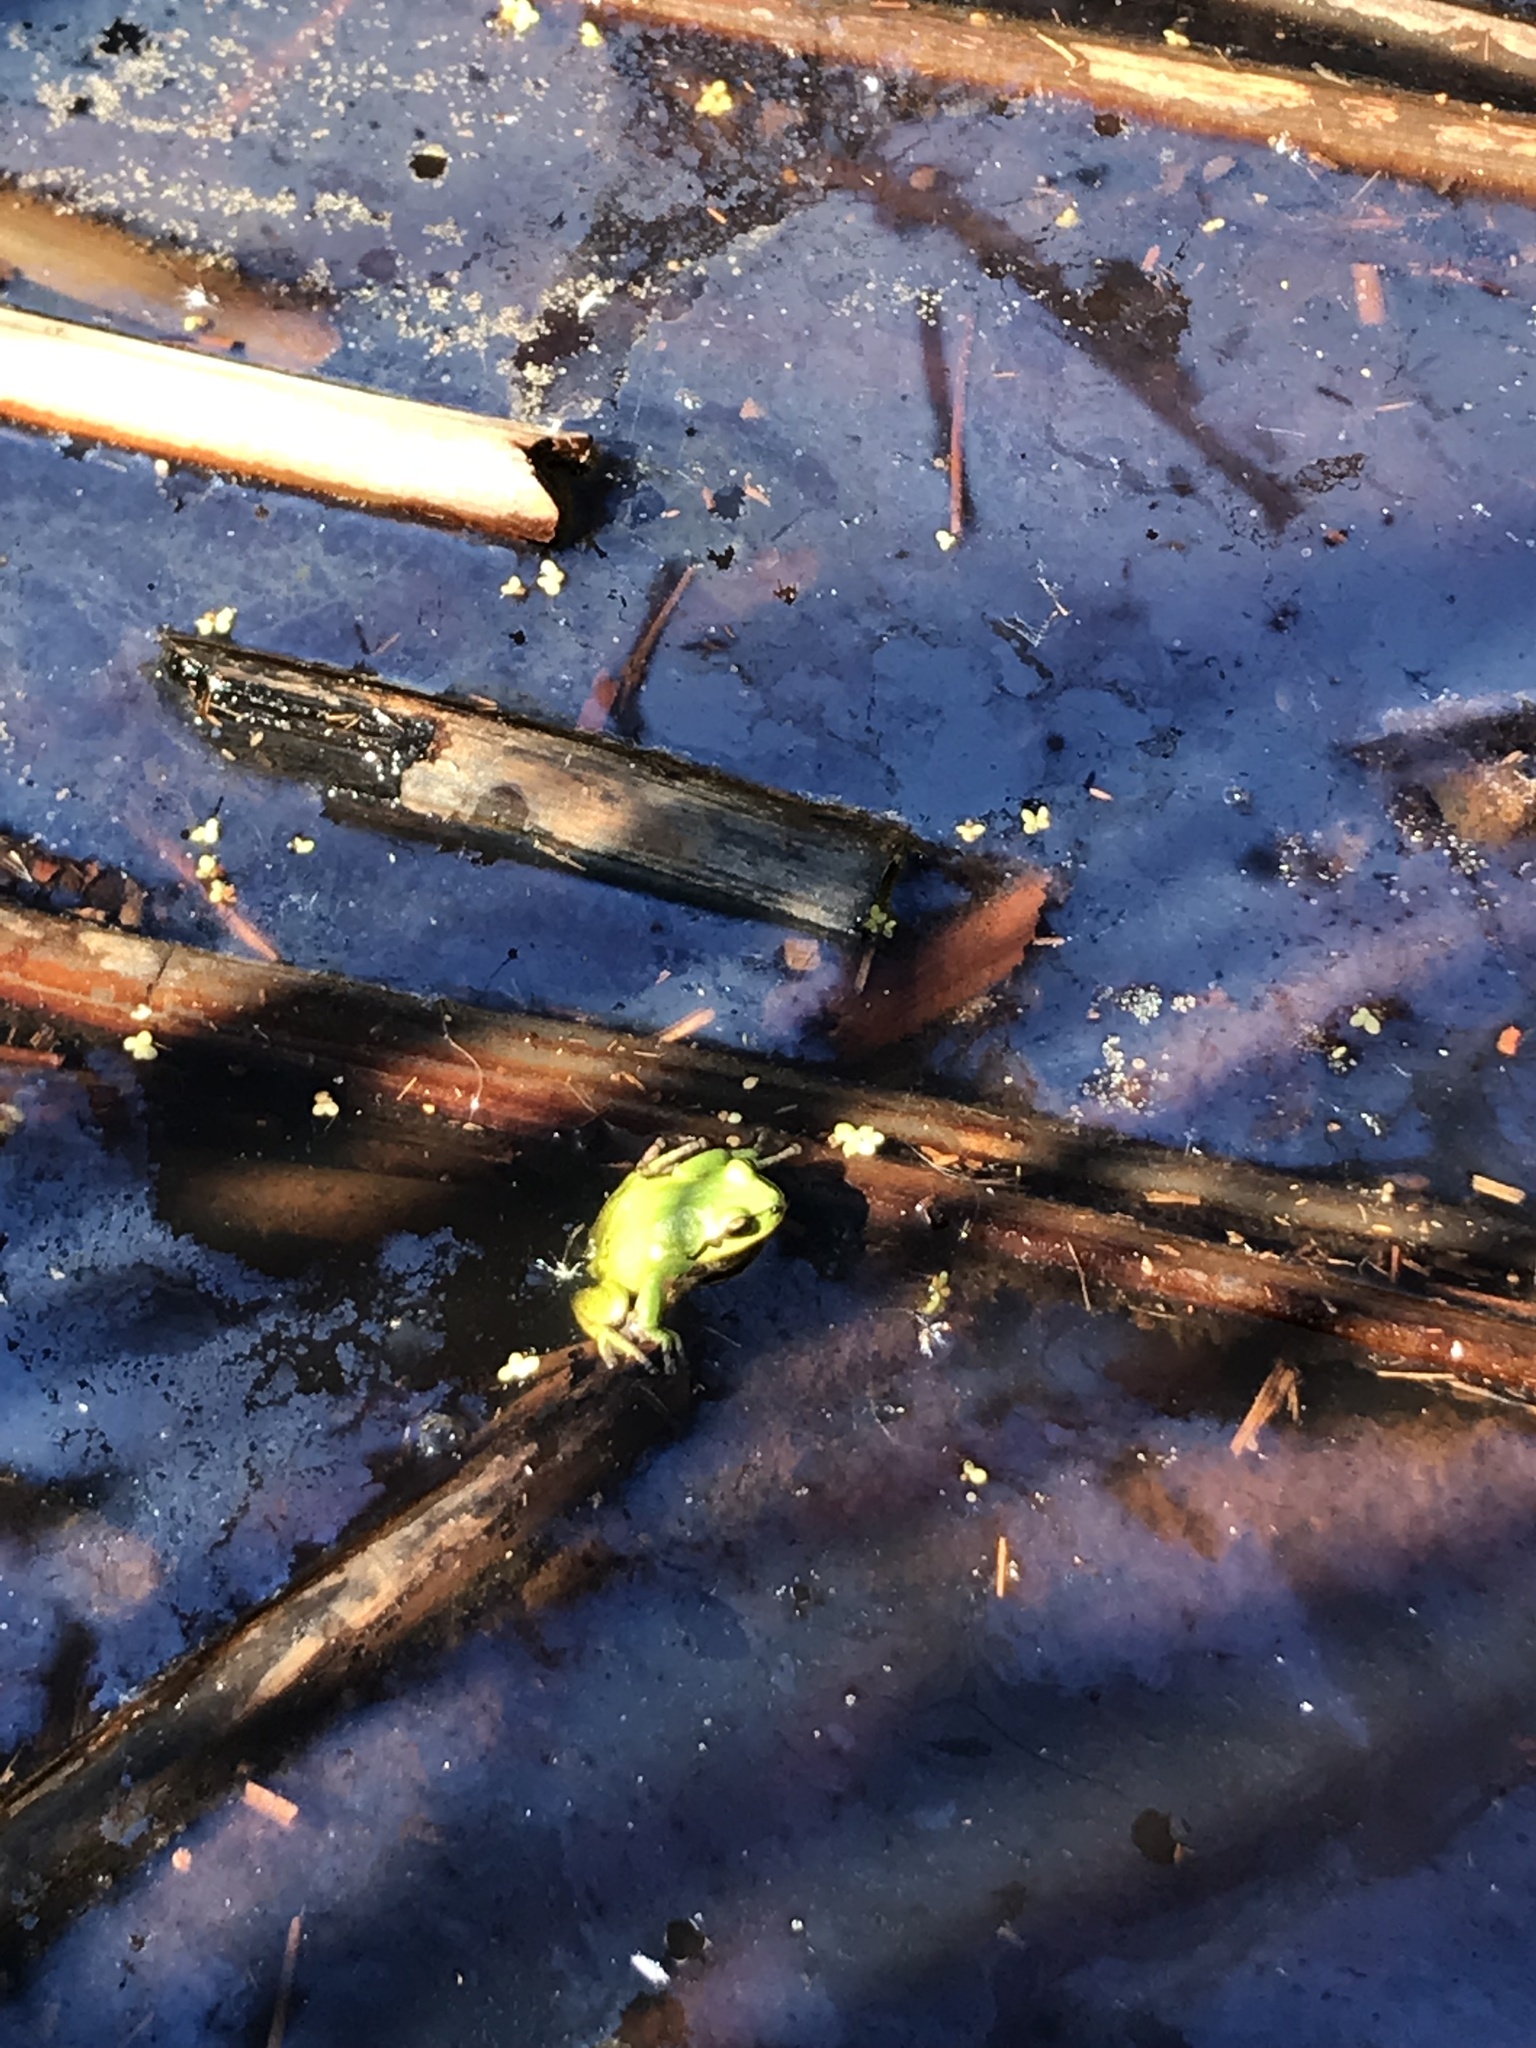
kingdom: Animalia
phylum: Chordata
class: Amphibia
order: Anura
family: Hylidae
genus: Pseudacris
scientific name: Pseudacris regilla
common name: Pacific chorus frog
